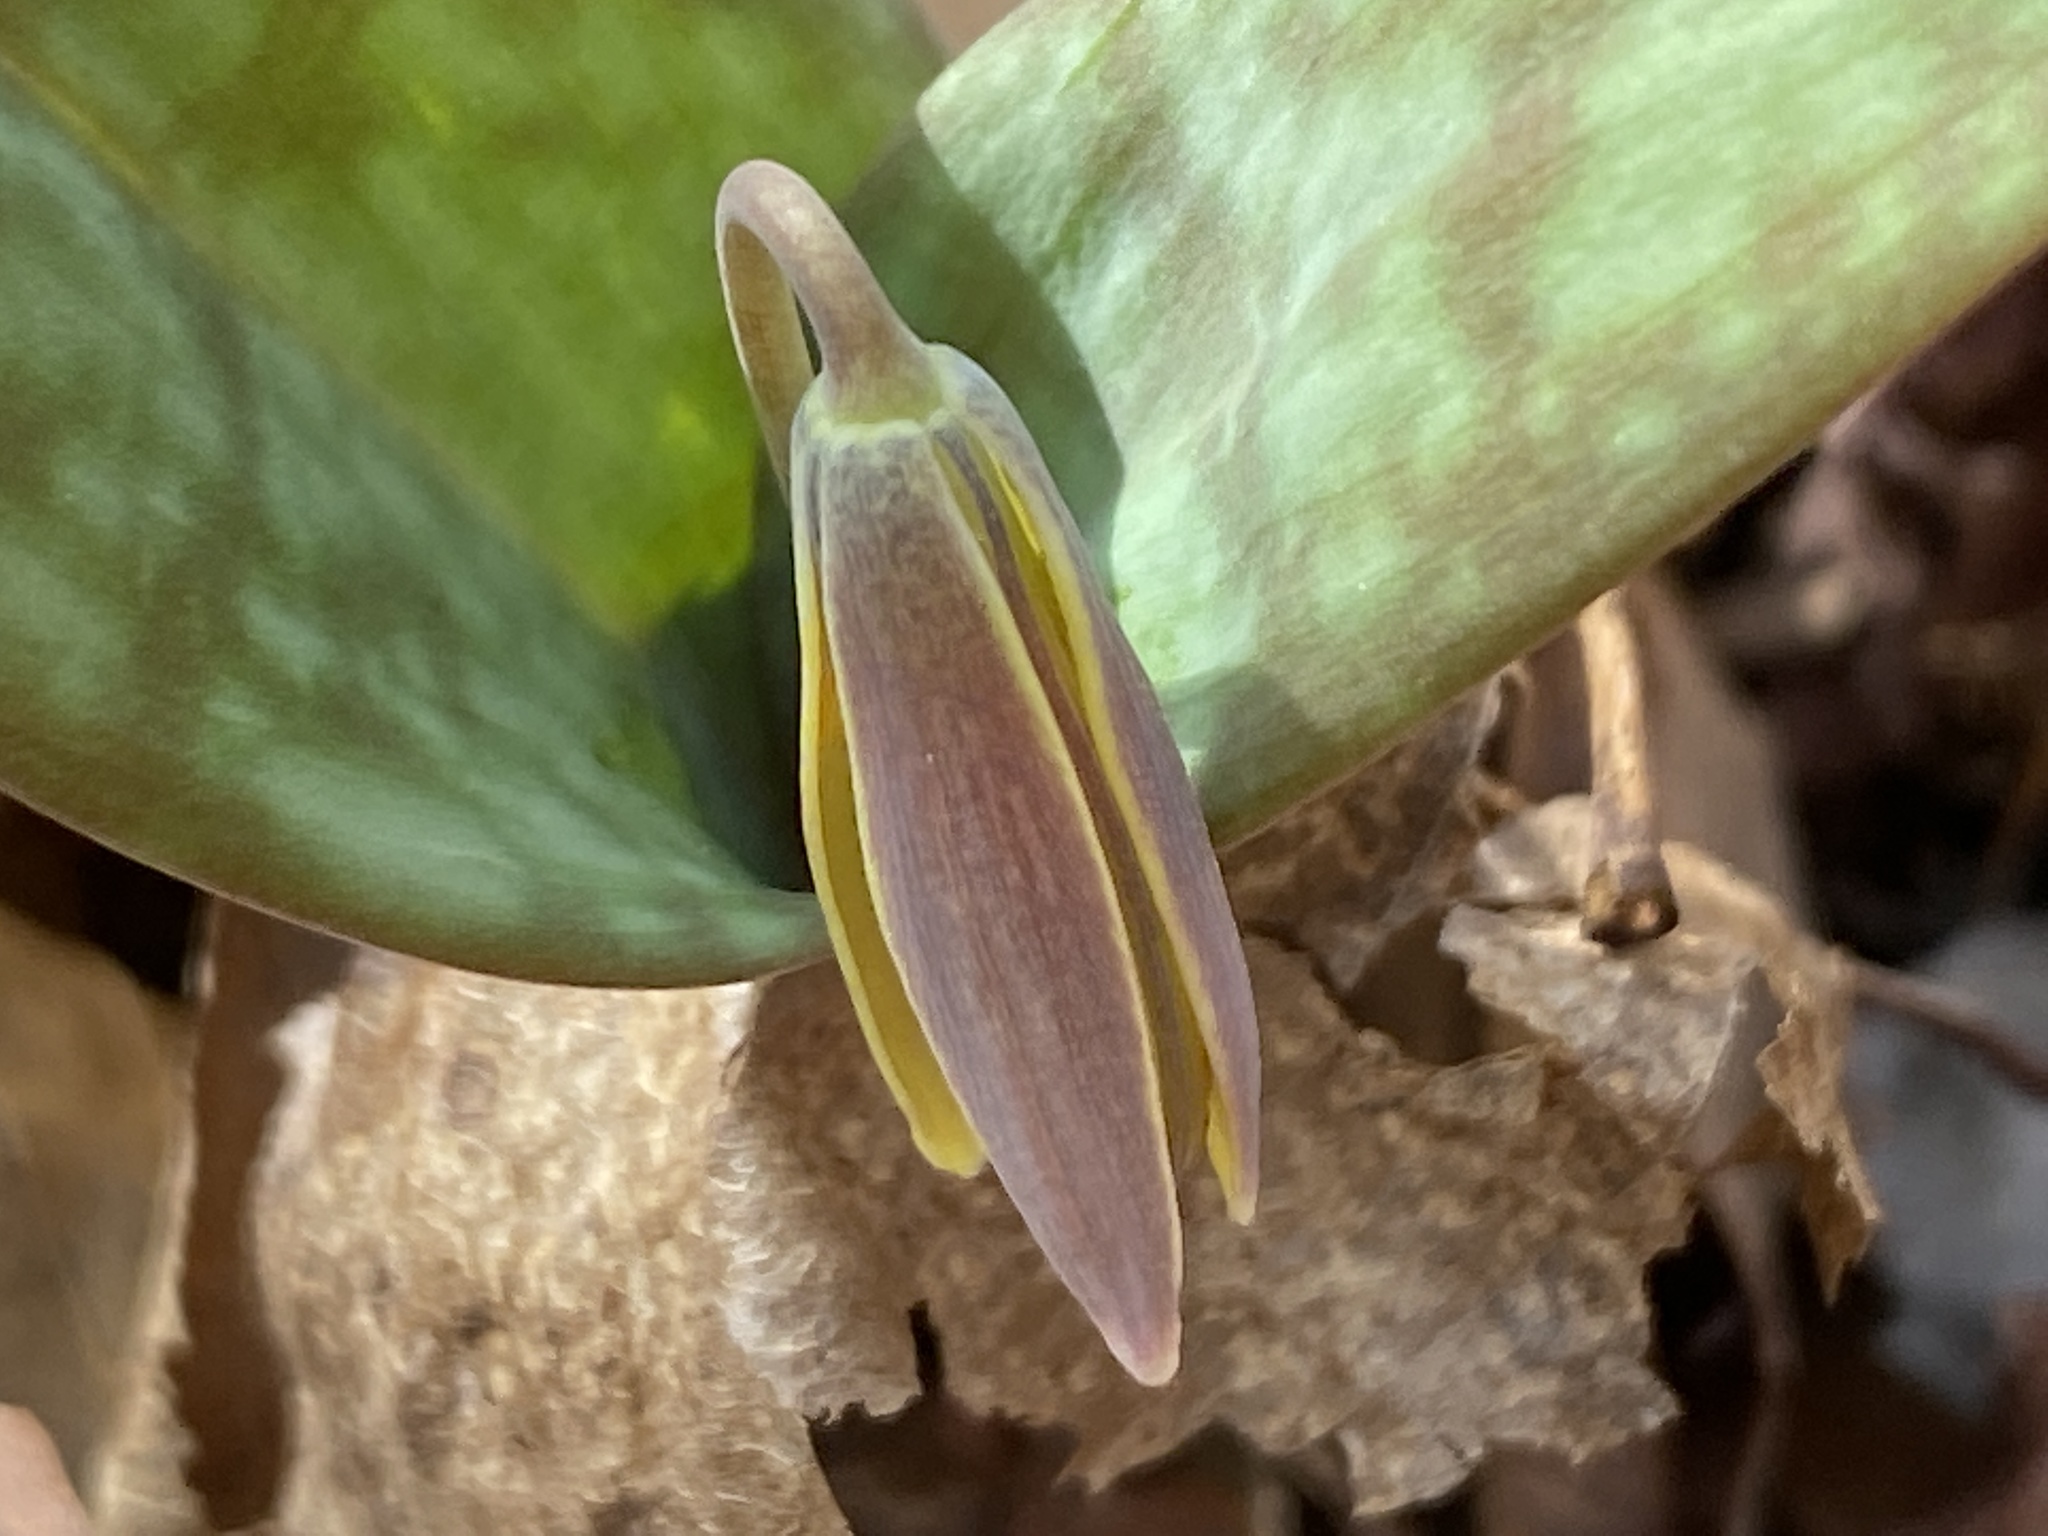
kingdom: Plantae
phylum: Tracheophyta
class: Liliopsida
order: Liliales
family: Liliaceae
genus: Erythronium
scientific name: Erythronium umbilicatum
